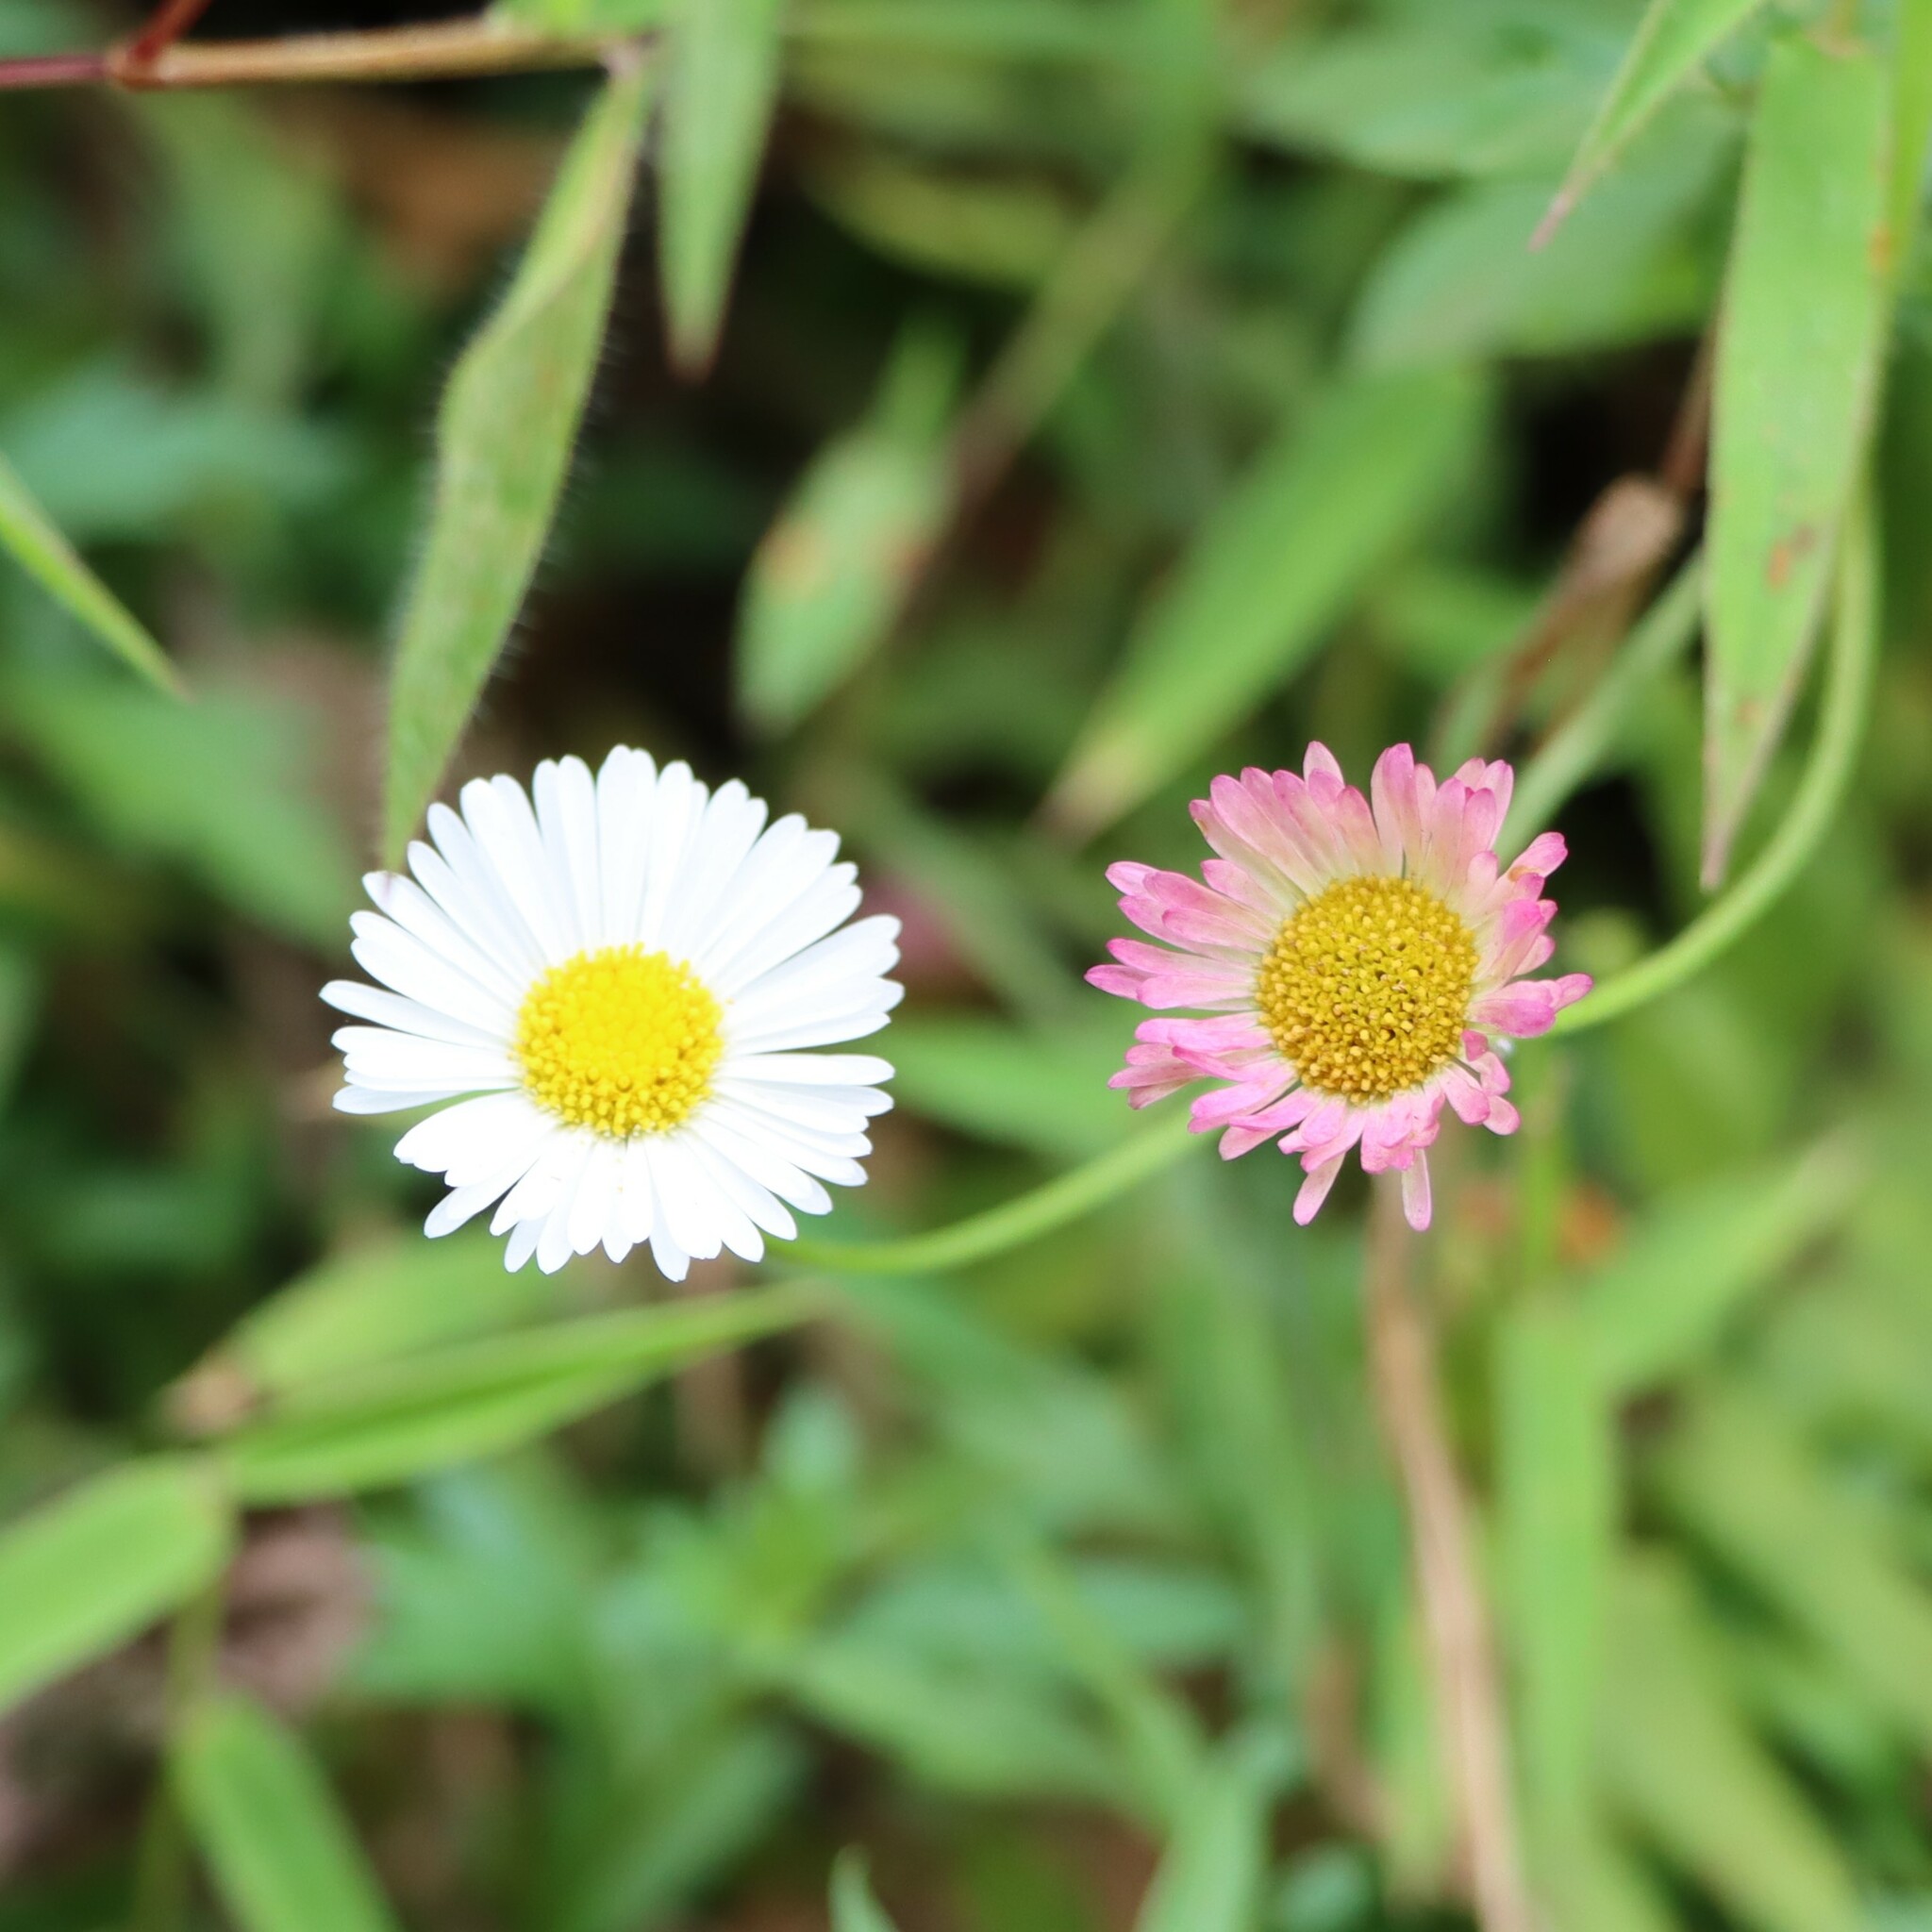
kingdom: Plantae
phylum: Tracheophyta
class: Magnoliopsida
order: Asterales
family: Asteraceae
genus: Erigeron
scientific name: Erigeron karvinskianus
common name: Mexican fleabane
